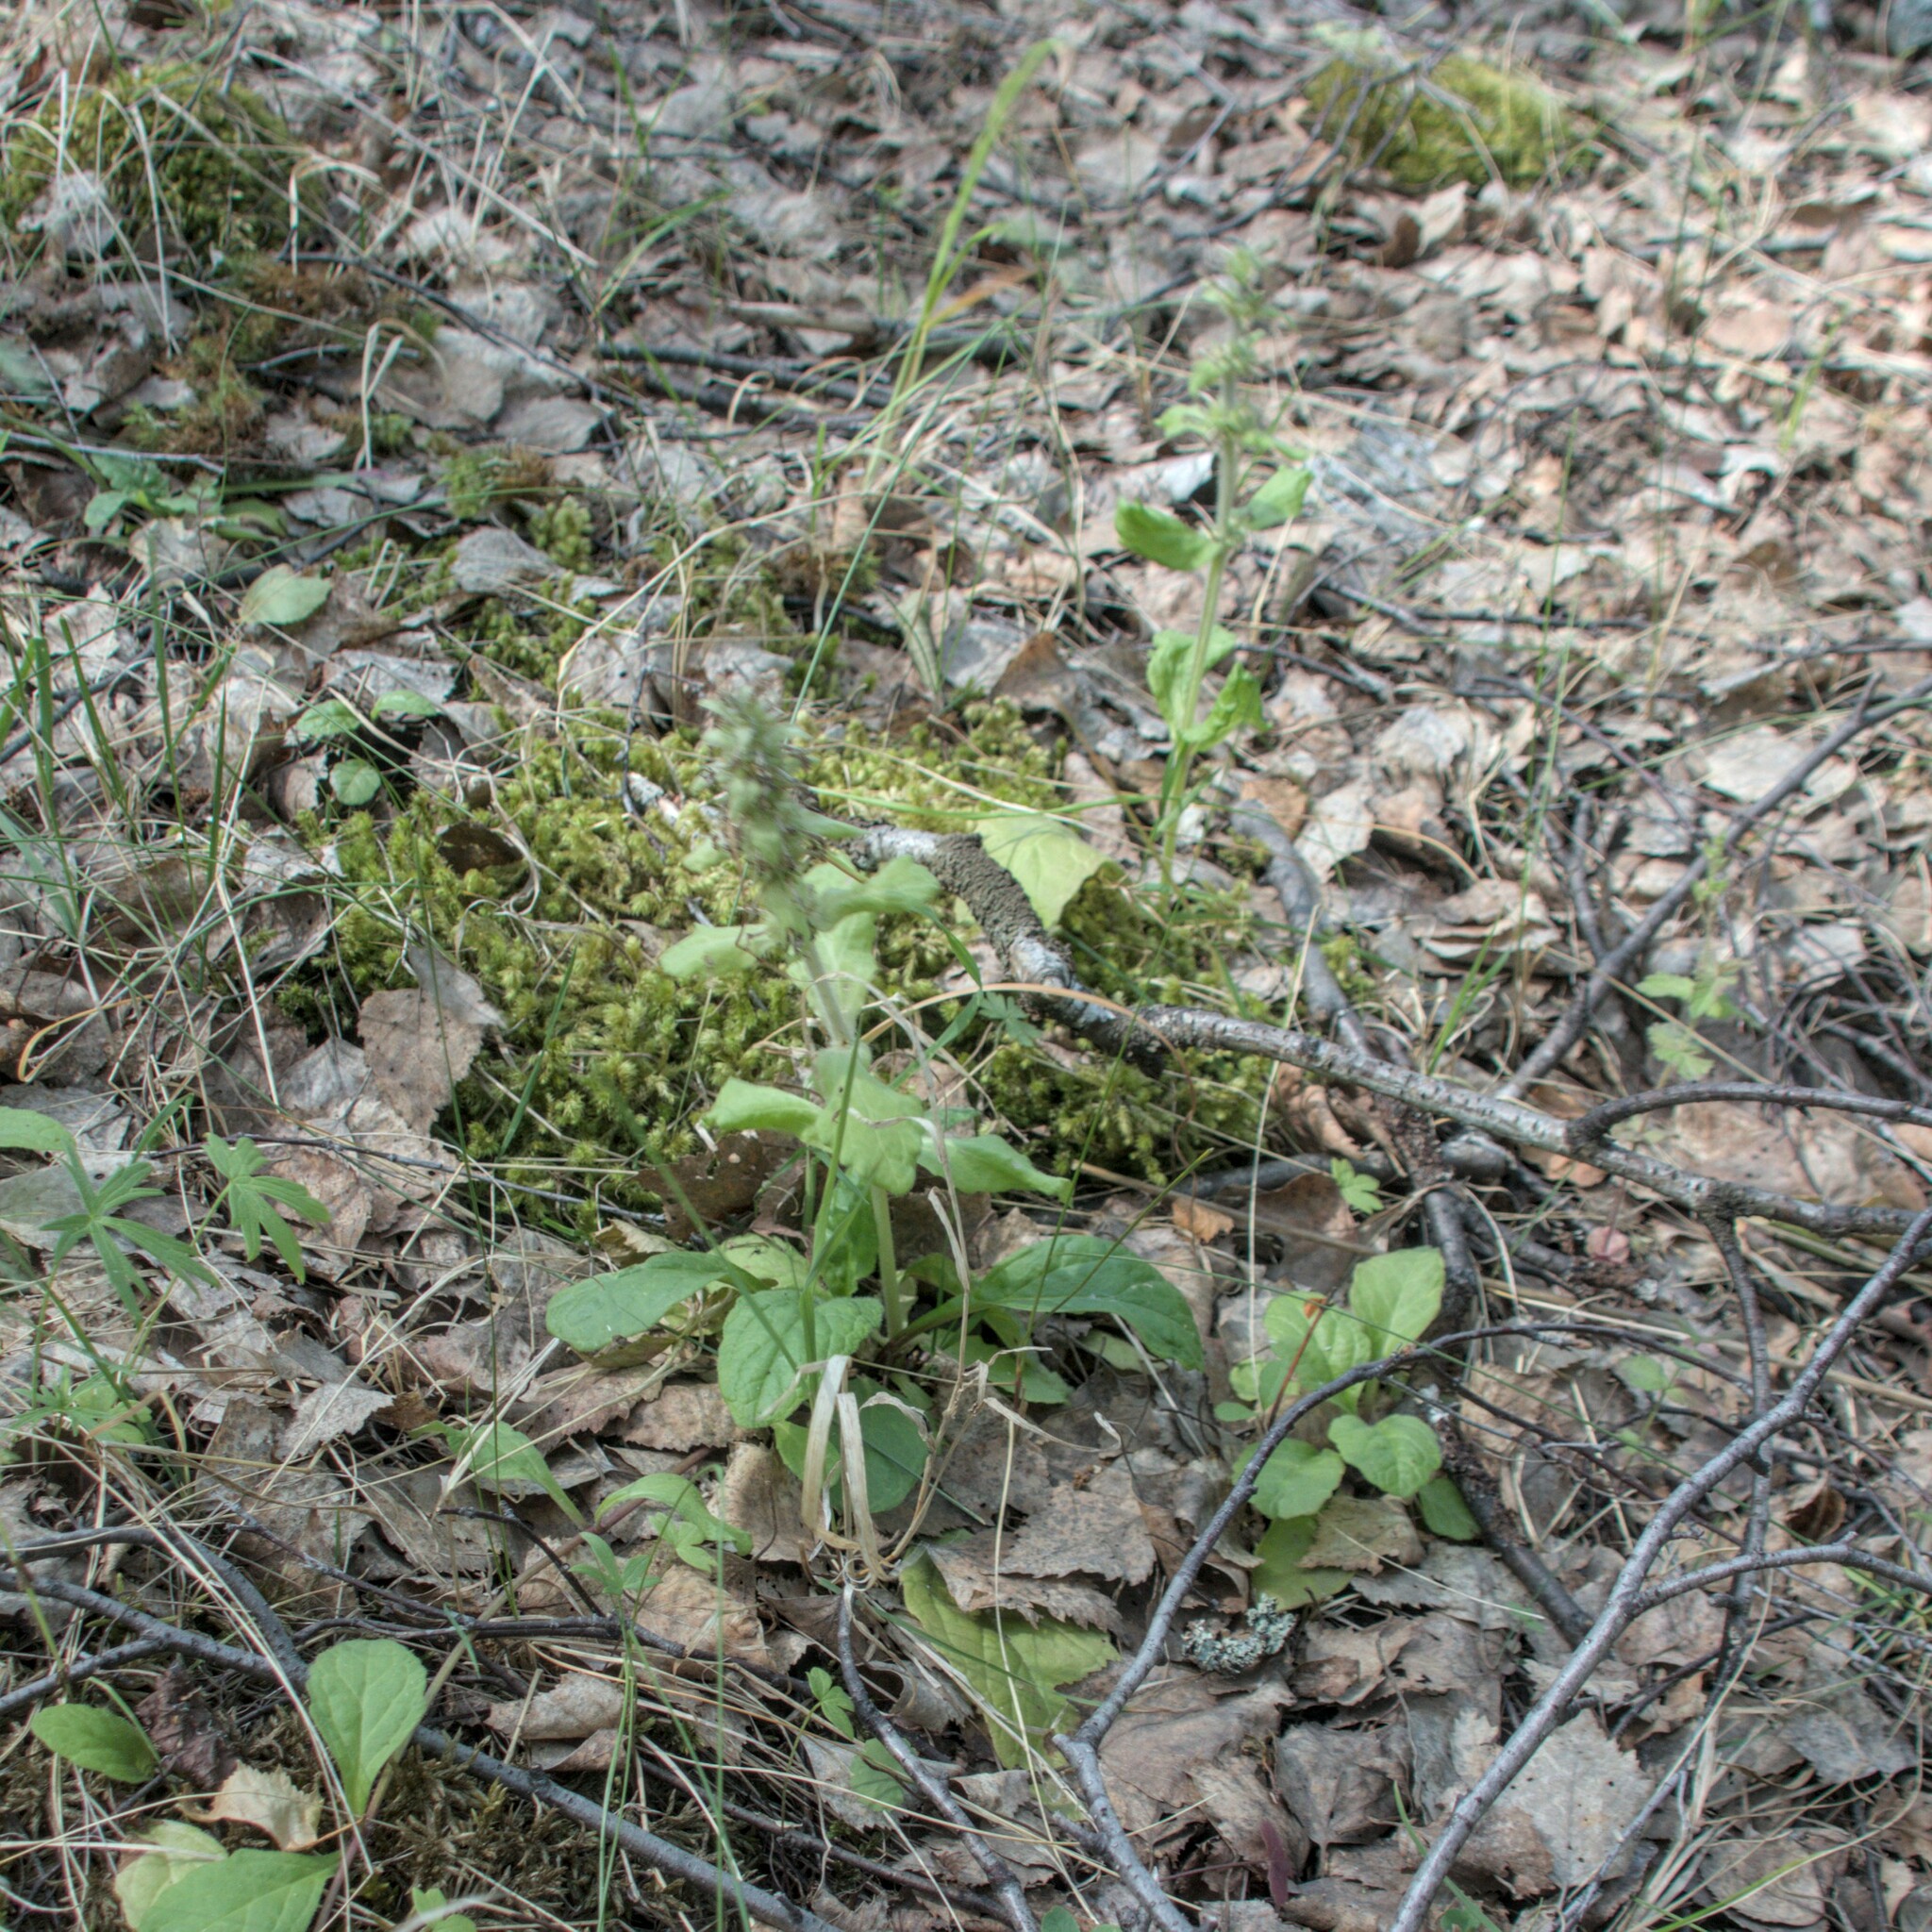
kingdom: Plantae
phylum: Tracheophyta
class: Magnoliopsida
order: Lamiales
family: Lamiaceae
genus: Ajuga
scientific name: Ajuga reptans
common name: Bugle
